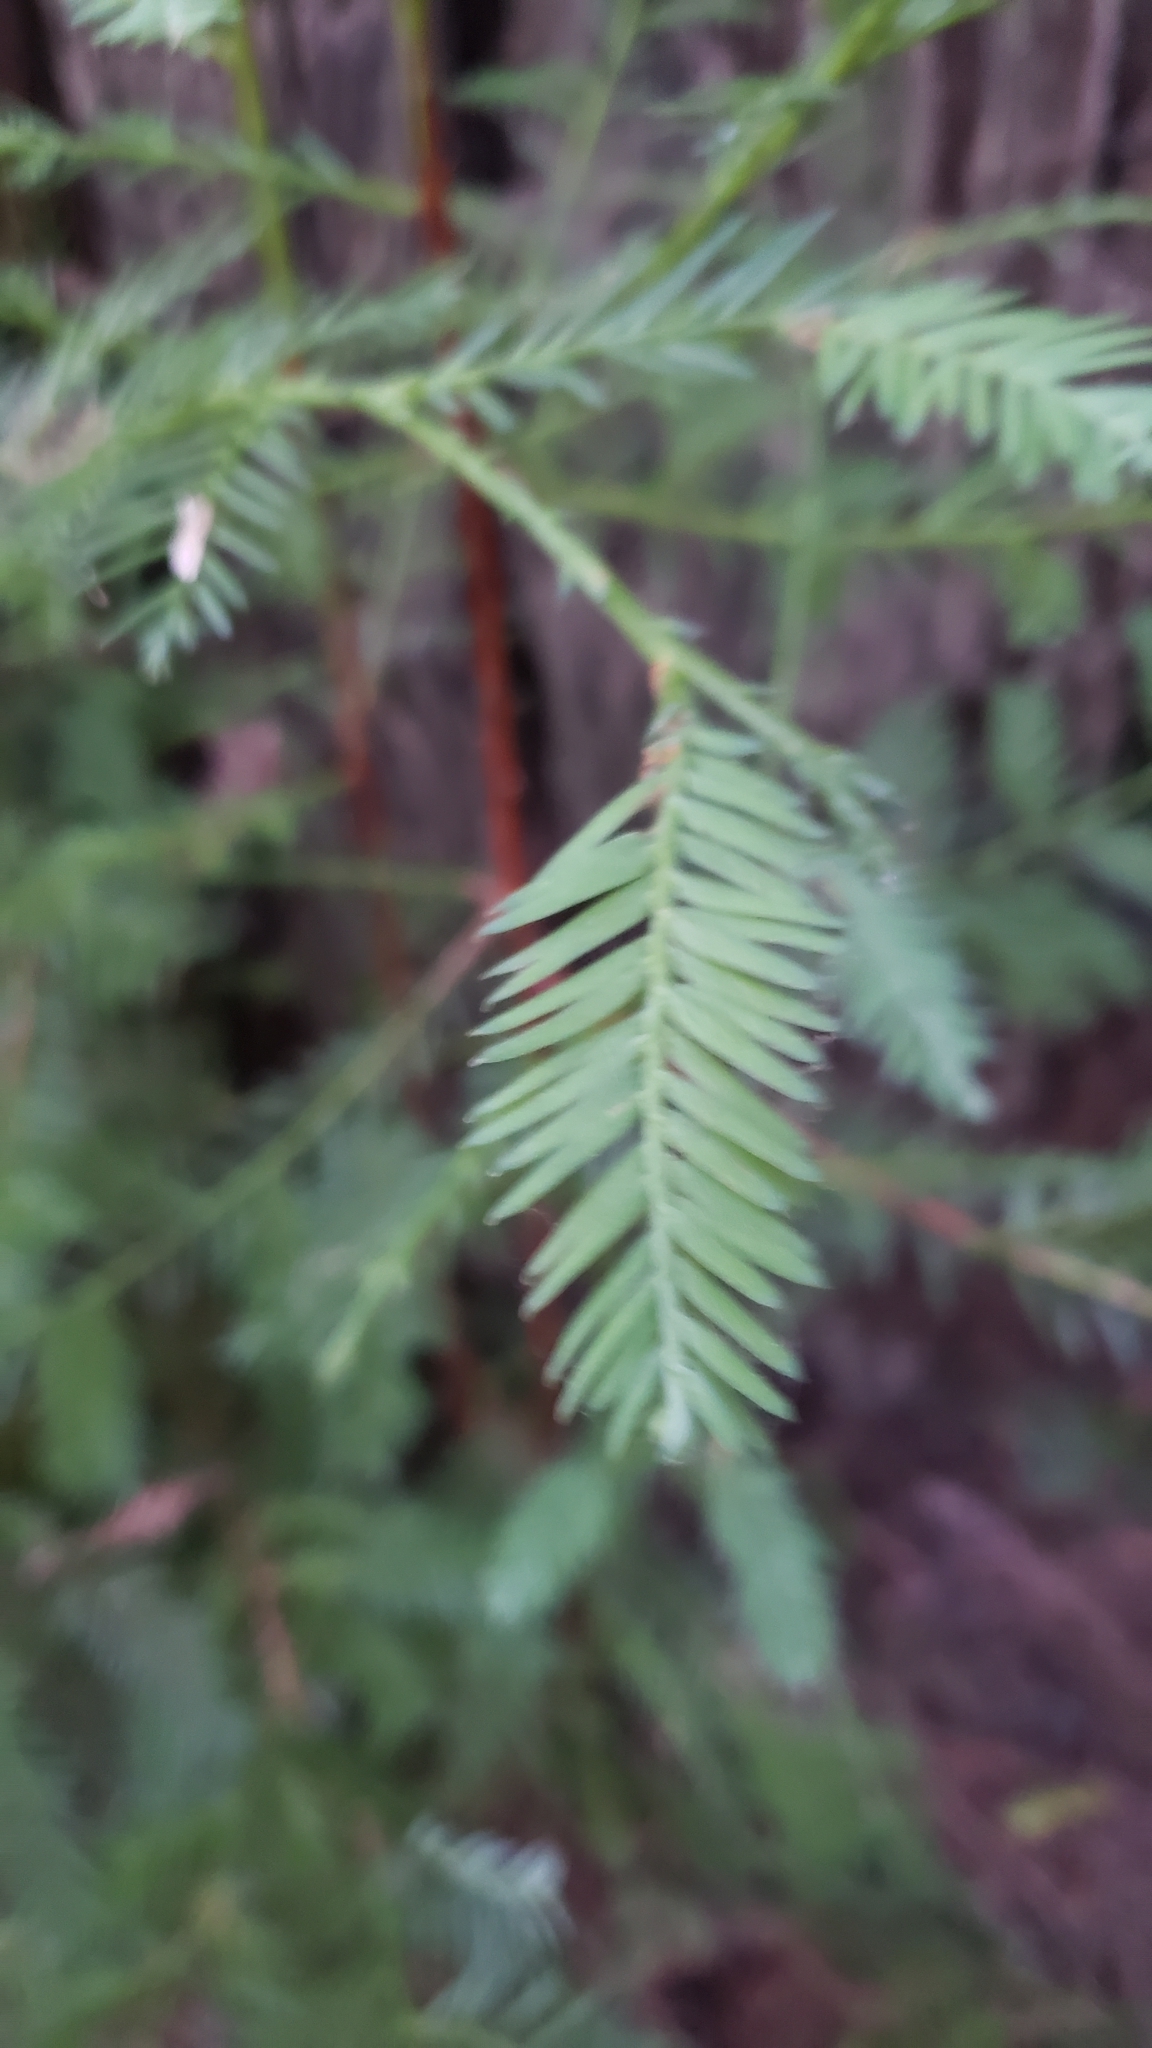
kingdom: Plantae
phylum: Tracheophyta
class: Pinopsida
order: Pinales
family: Cupressaceae
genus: Sequoia
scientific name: Sequoia sempervirens
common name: Coast redwood
